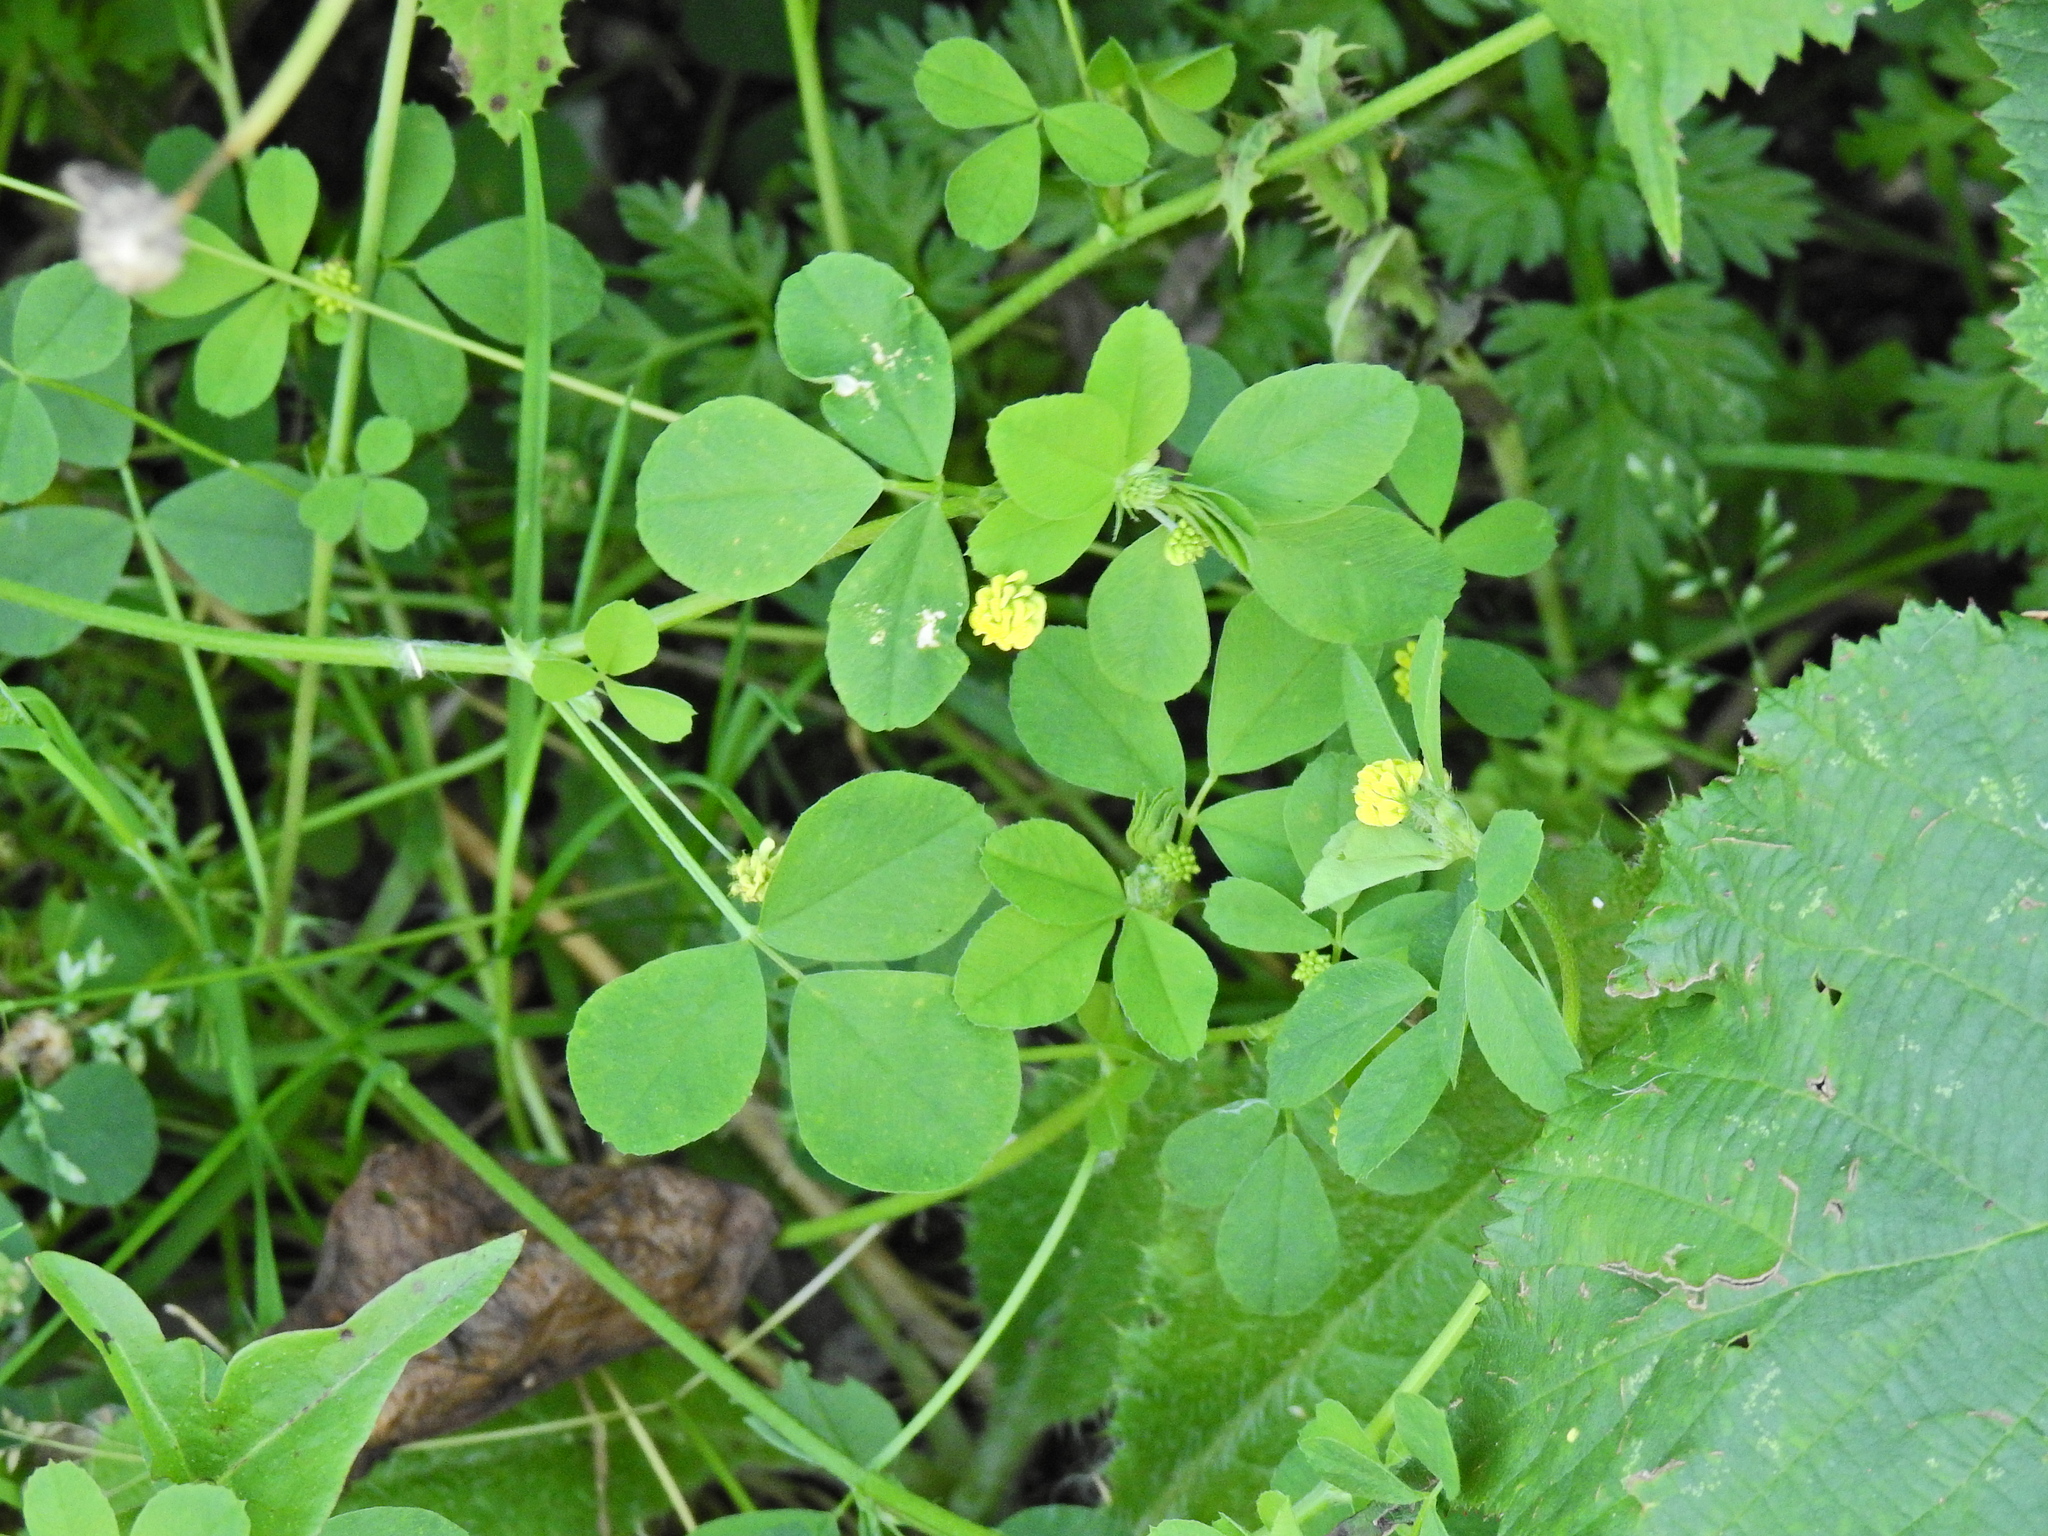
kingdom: Plantae
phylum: Tracheophyta
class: Magnoliopsida
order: Fabales
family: Fabaceae
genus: Medicago
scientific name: Medicago lupulina
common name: Black medick
